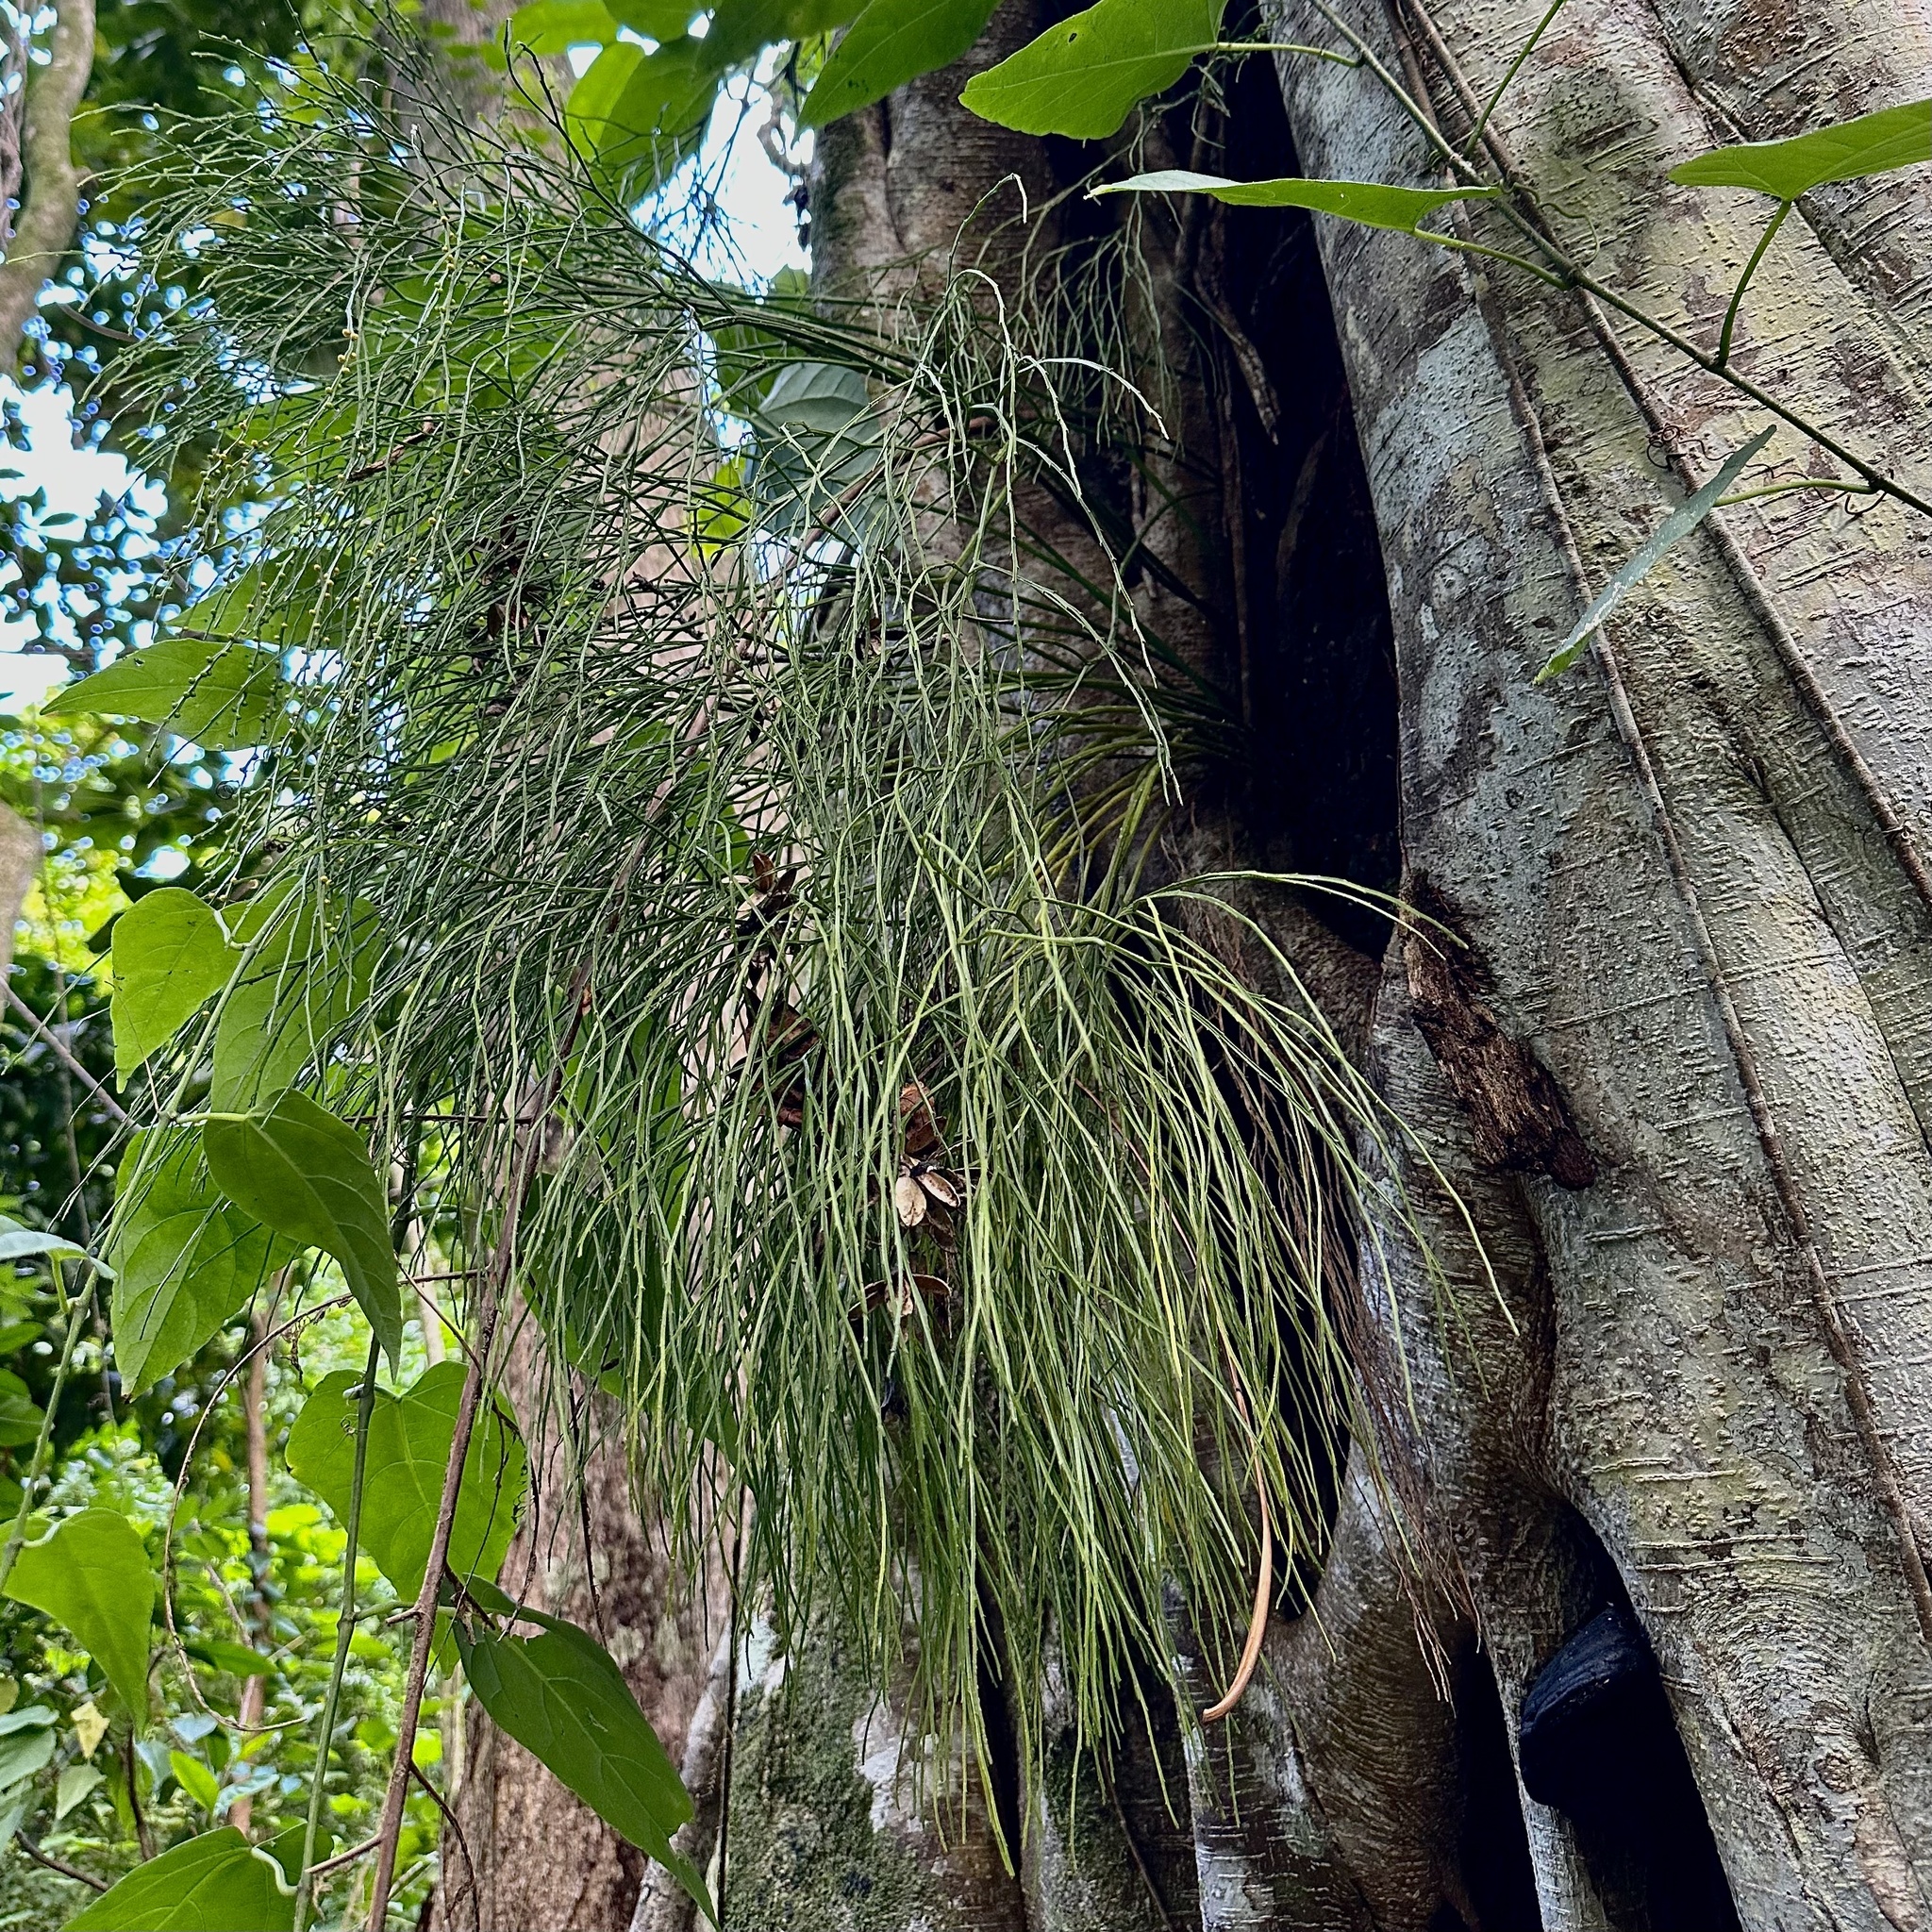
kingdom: Plantae
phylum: Tracheophyta
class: Polypodiopsida
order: Psilotales
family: Psilotaceae
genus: Psilotum
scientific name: Psilotum nudum
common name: Skeleton fork fern
